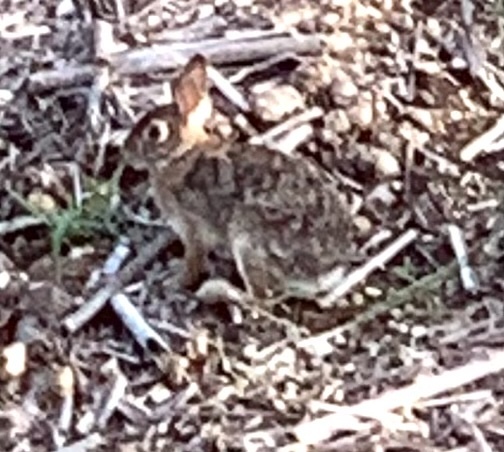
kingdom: Animalia
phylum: Chordata
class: Mammalia
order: Lagomorpha
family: Leporidae
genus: Sylvilagus
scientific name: Sylvilagus aquaticus
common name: Swamp rabbit
